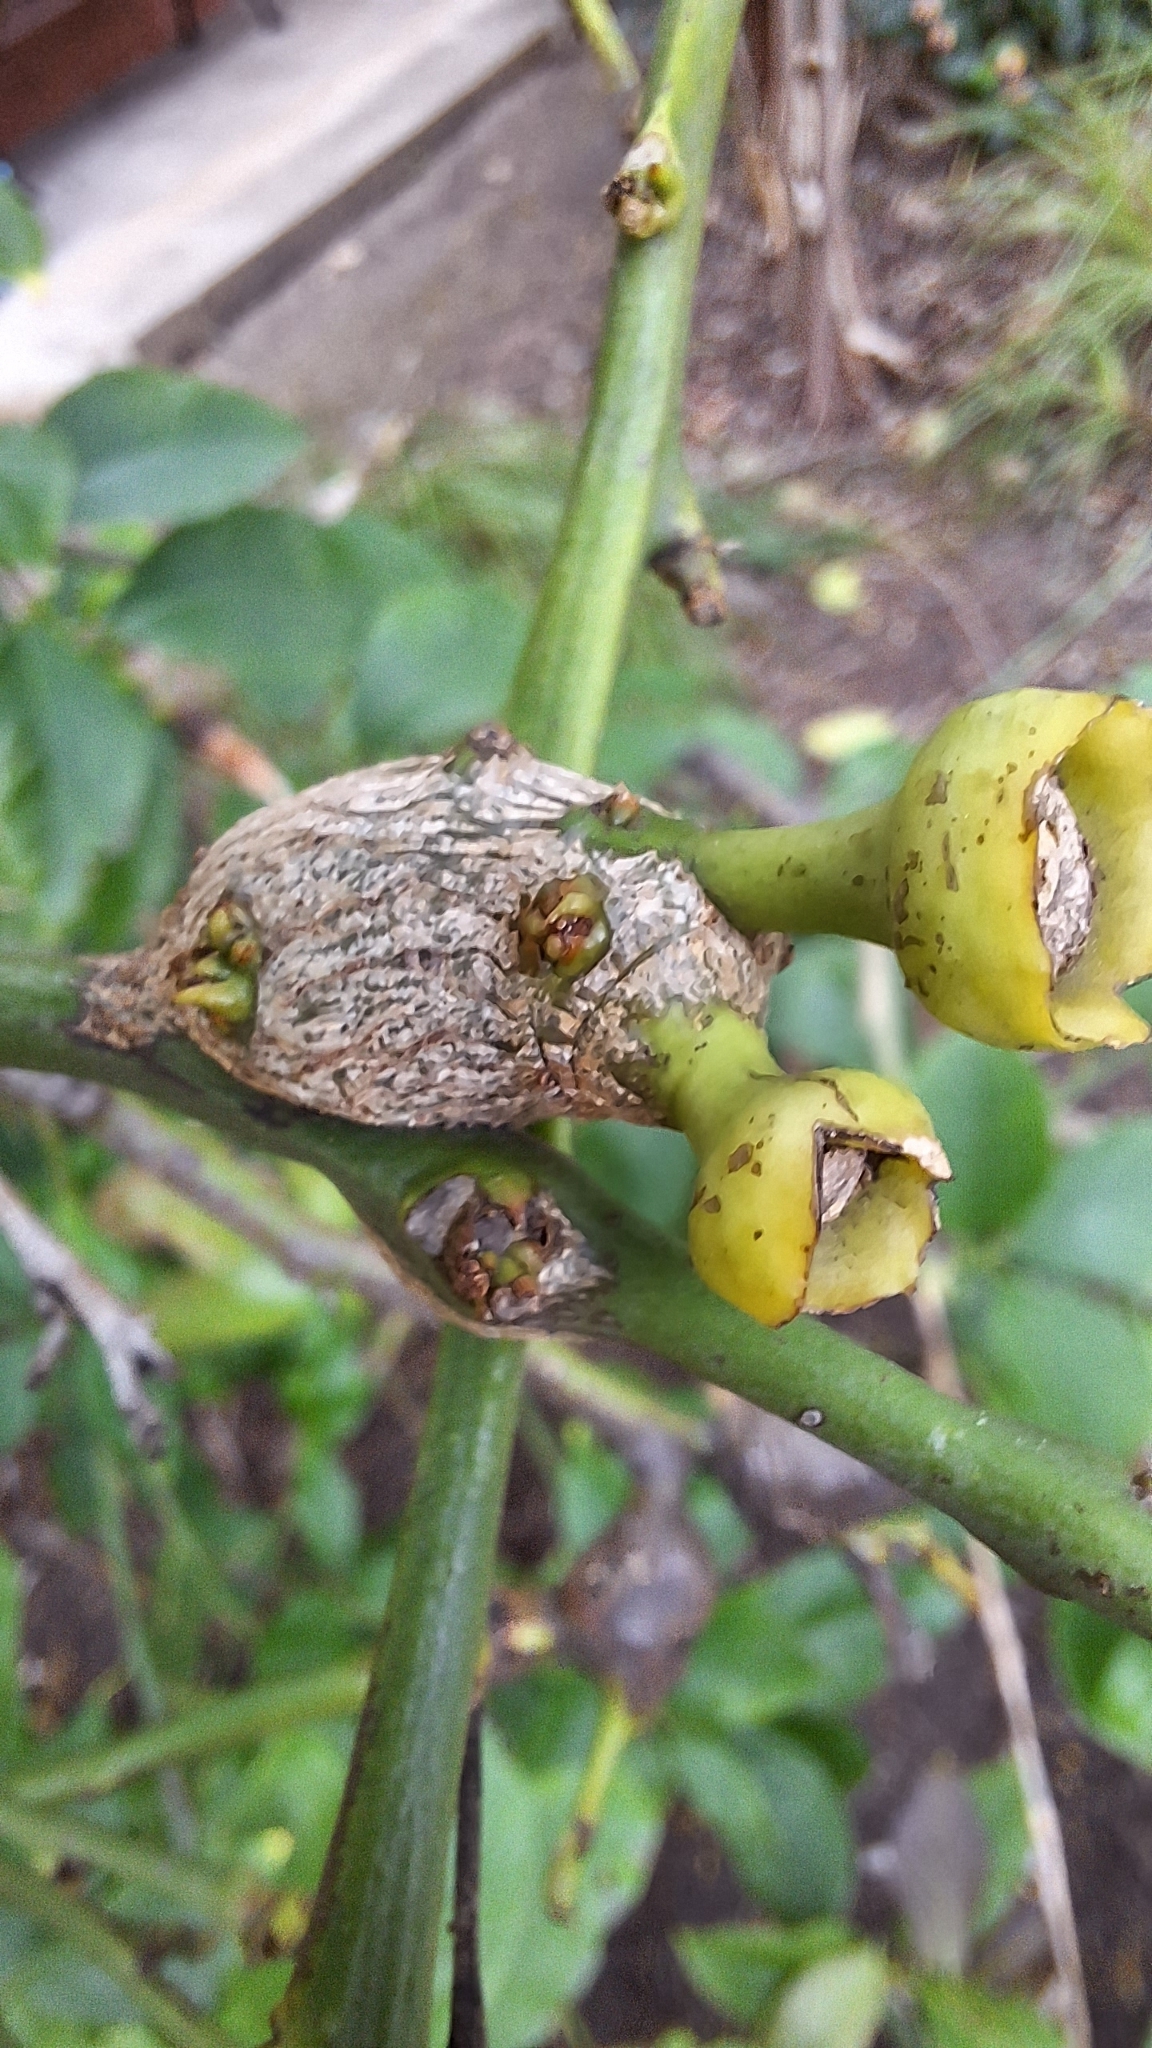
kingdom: Animalia
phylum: Arthropoda
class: Insecta
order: Hymenoptera
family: Eurytomidae
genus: Bruchophagus
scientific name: Bruchophagus fellis
